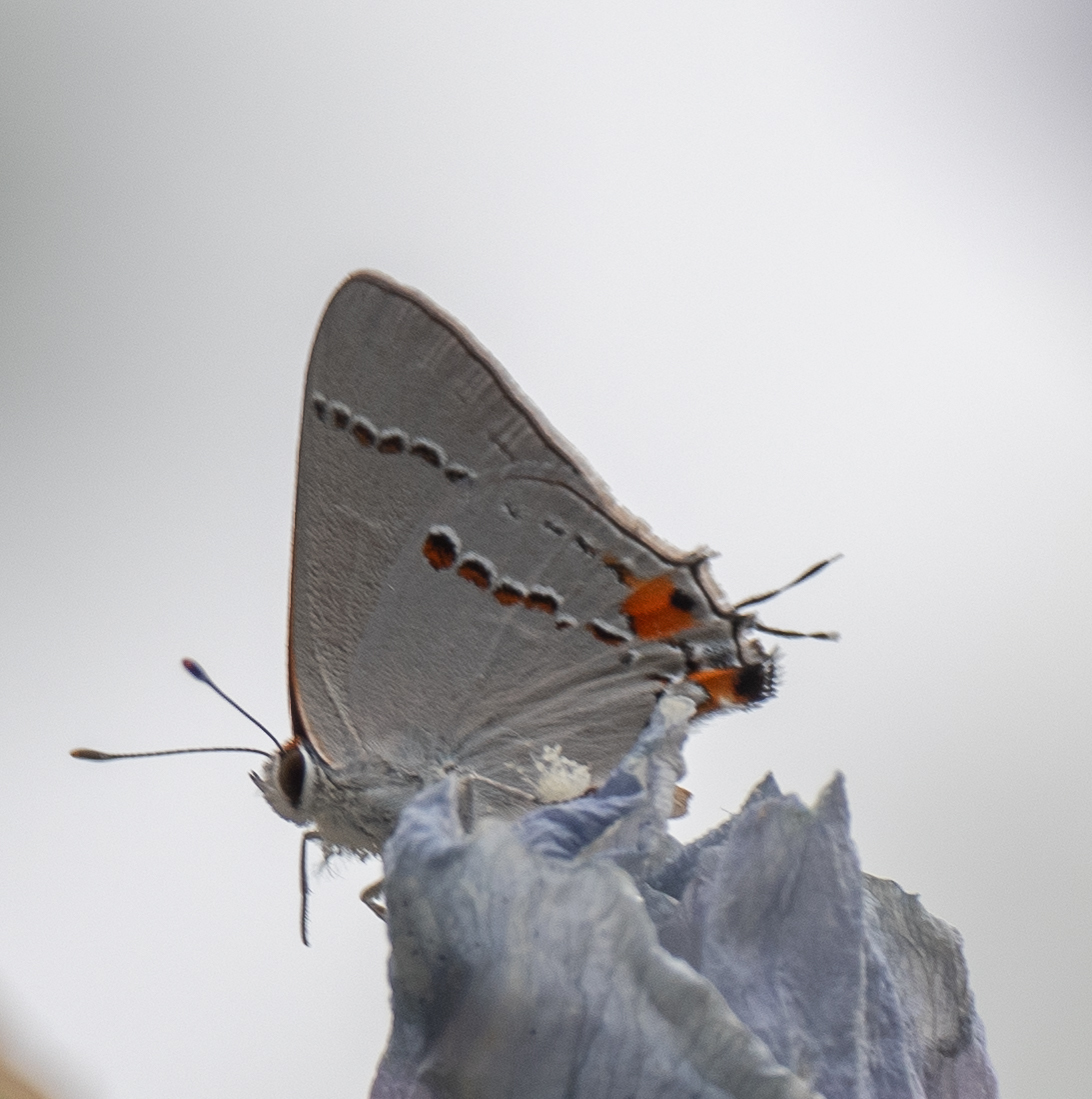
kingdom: Animalia
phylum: Arthropoda
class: Insecta
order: Lepidoptera
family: Lycaenidae
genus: Strymon
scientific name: Strymon melinus
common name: Gray hairstreak
